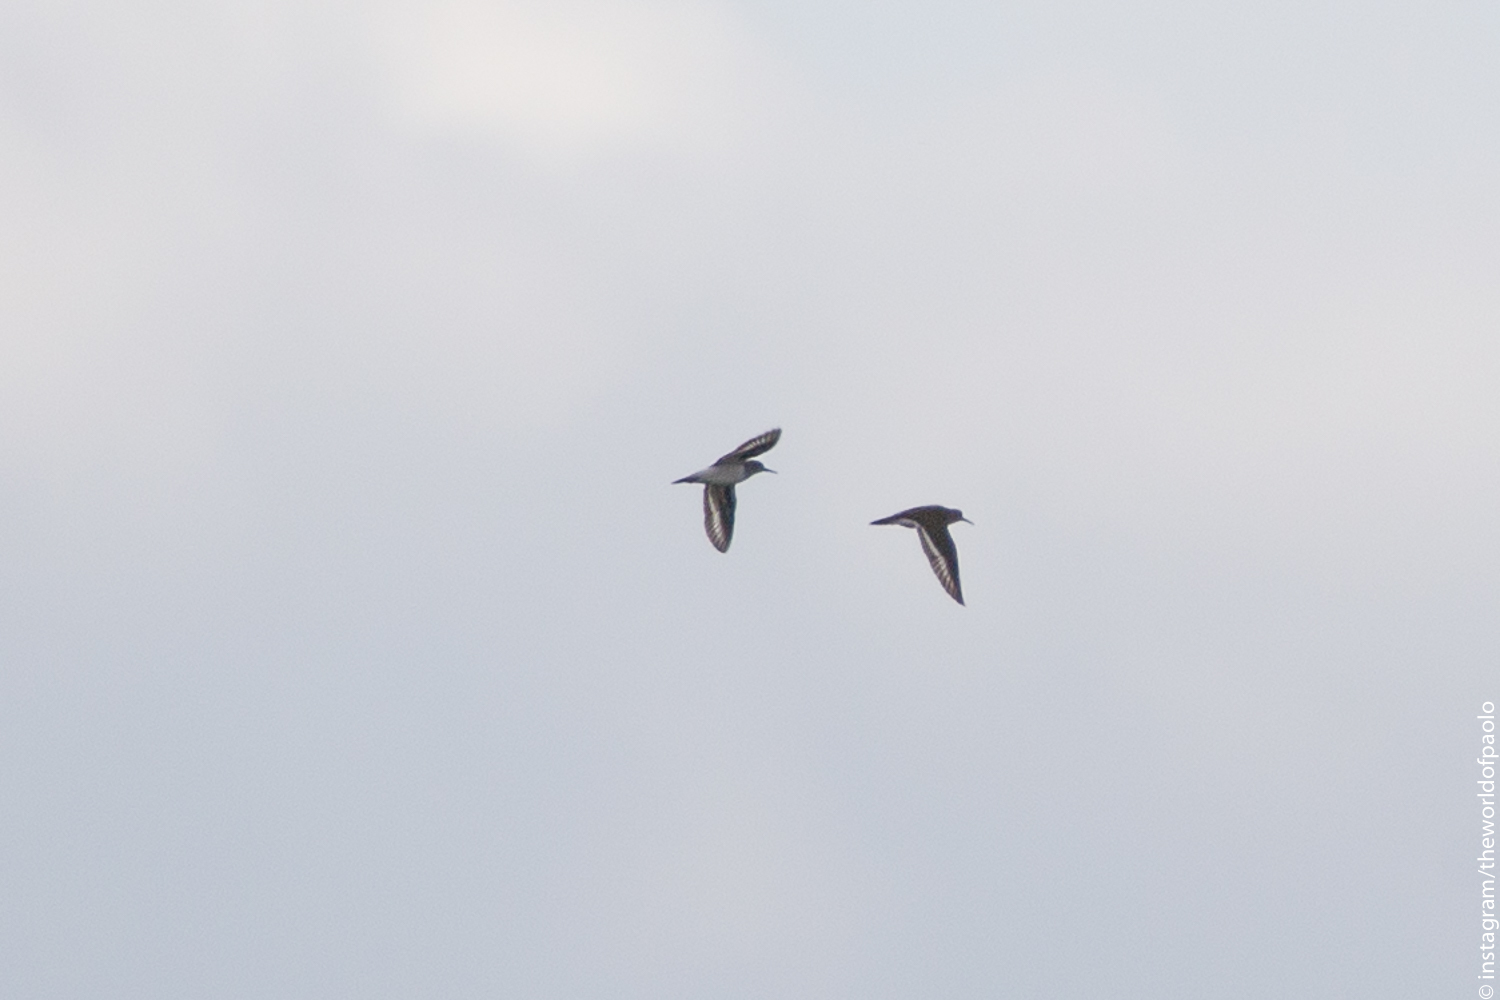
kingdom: Animalia
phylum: Chordata
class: Aves
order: Charadriiformes
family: Scolopacidae
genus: Actitis
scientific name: Actitis hypoleucos
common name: Common sandpiper
